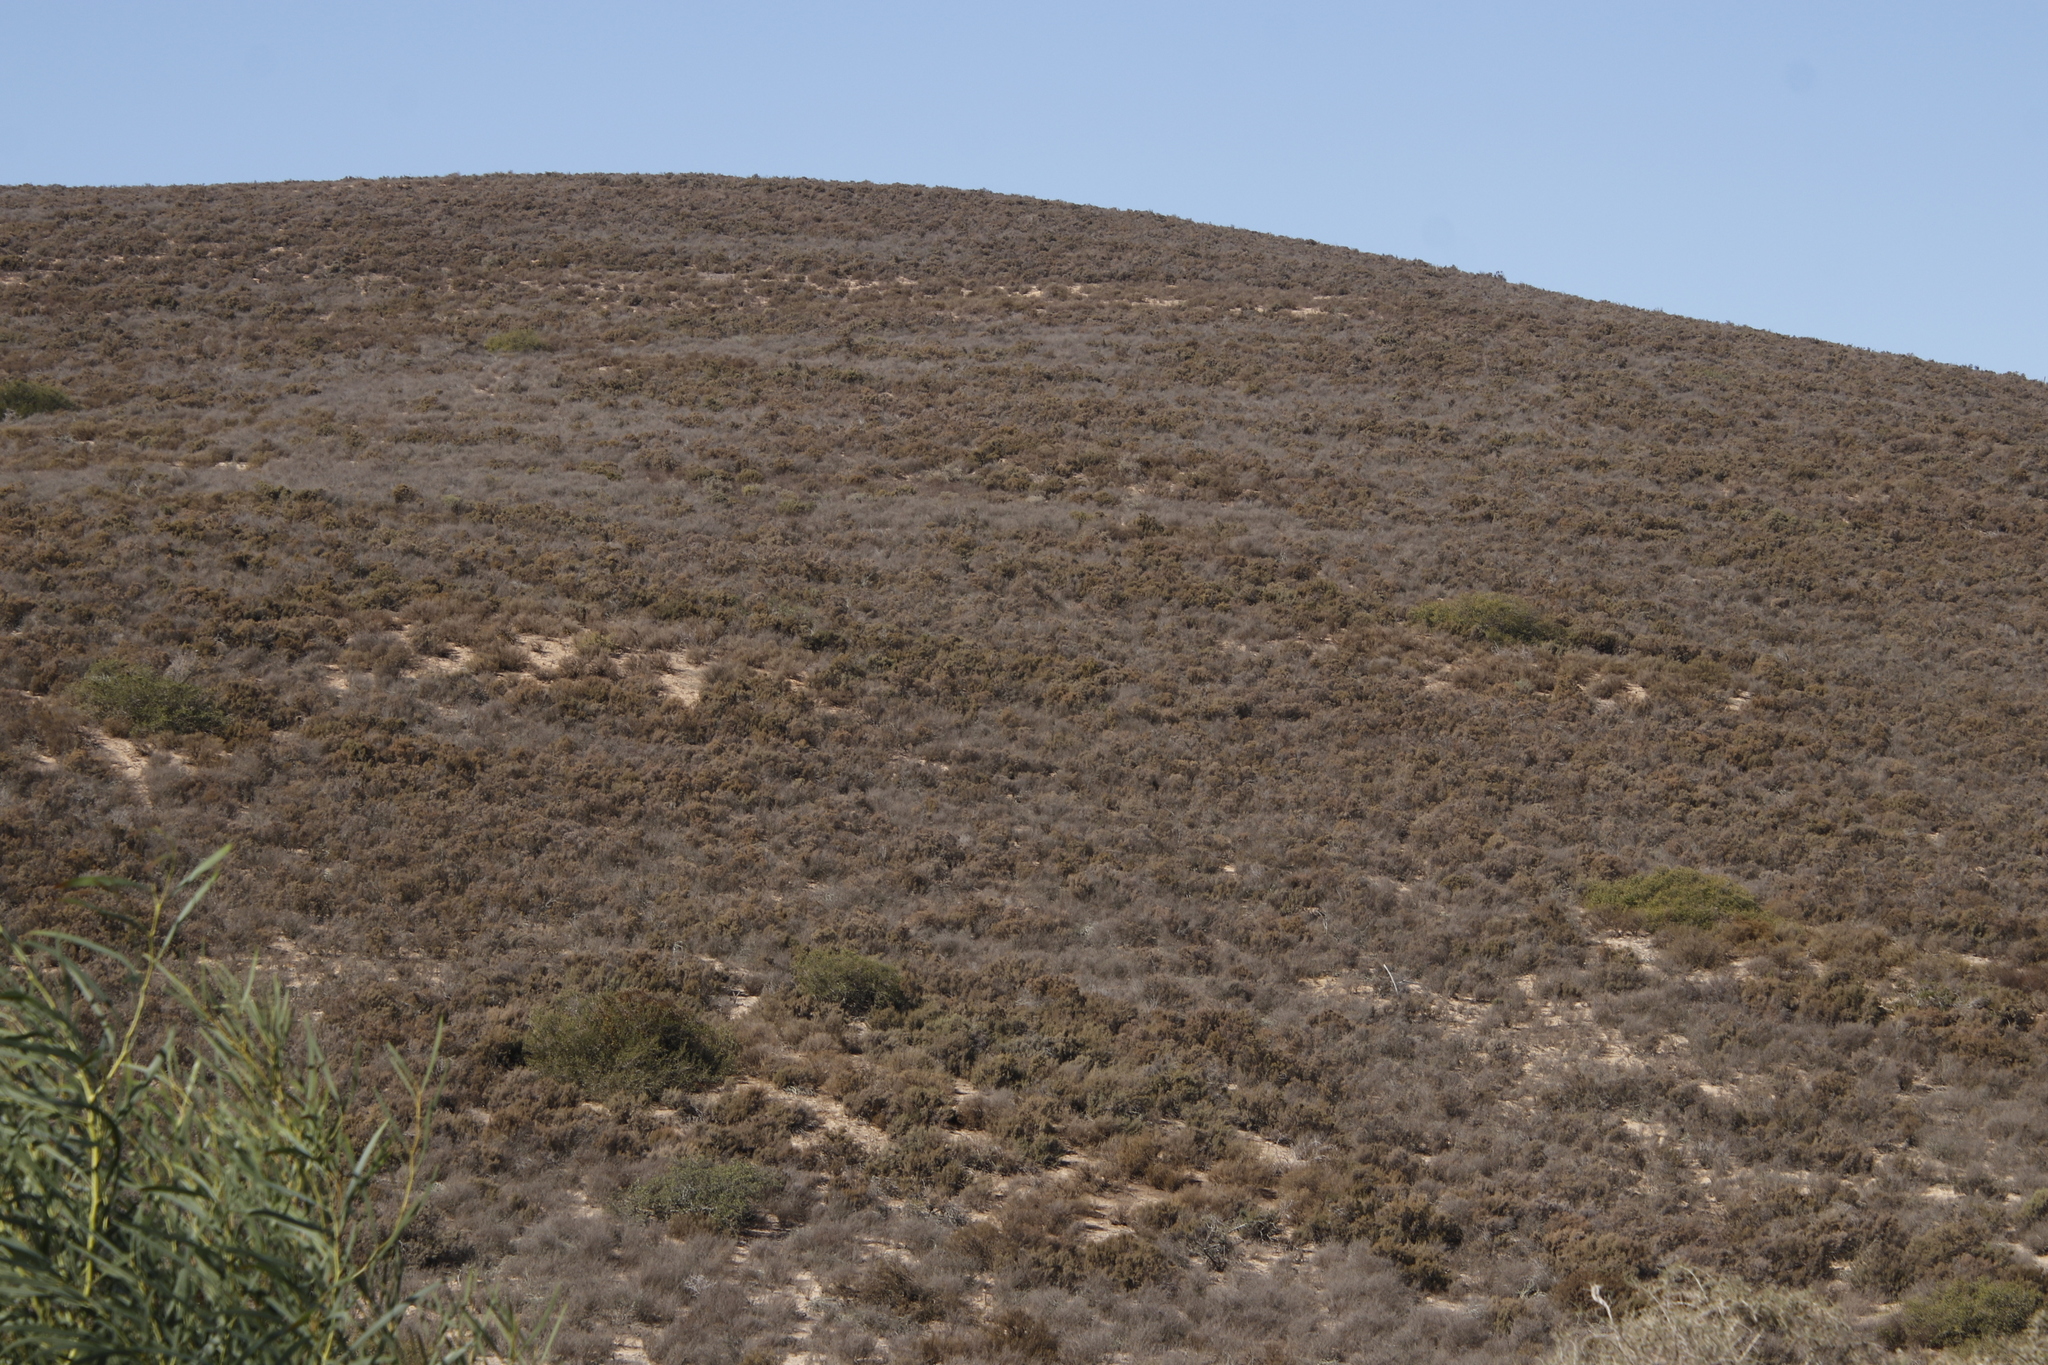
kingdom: Plantae
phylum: Tracheophyta
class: Magnoliopsida
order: Asterales
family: Asteraceae
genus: Dicerothamnus
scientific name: Dicerothamnus rhinocerotis
